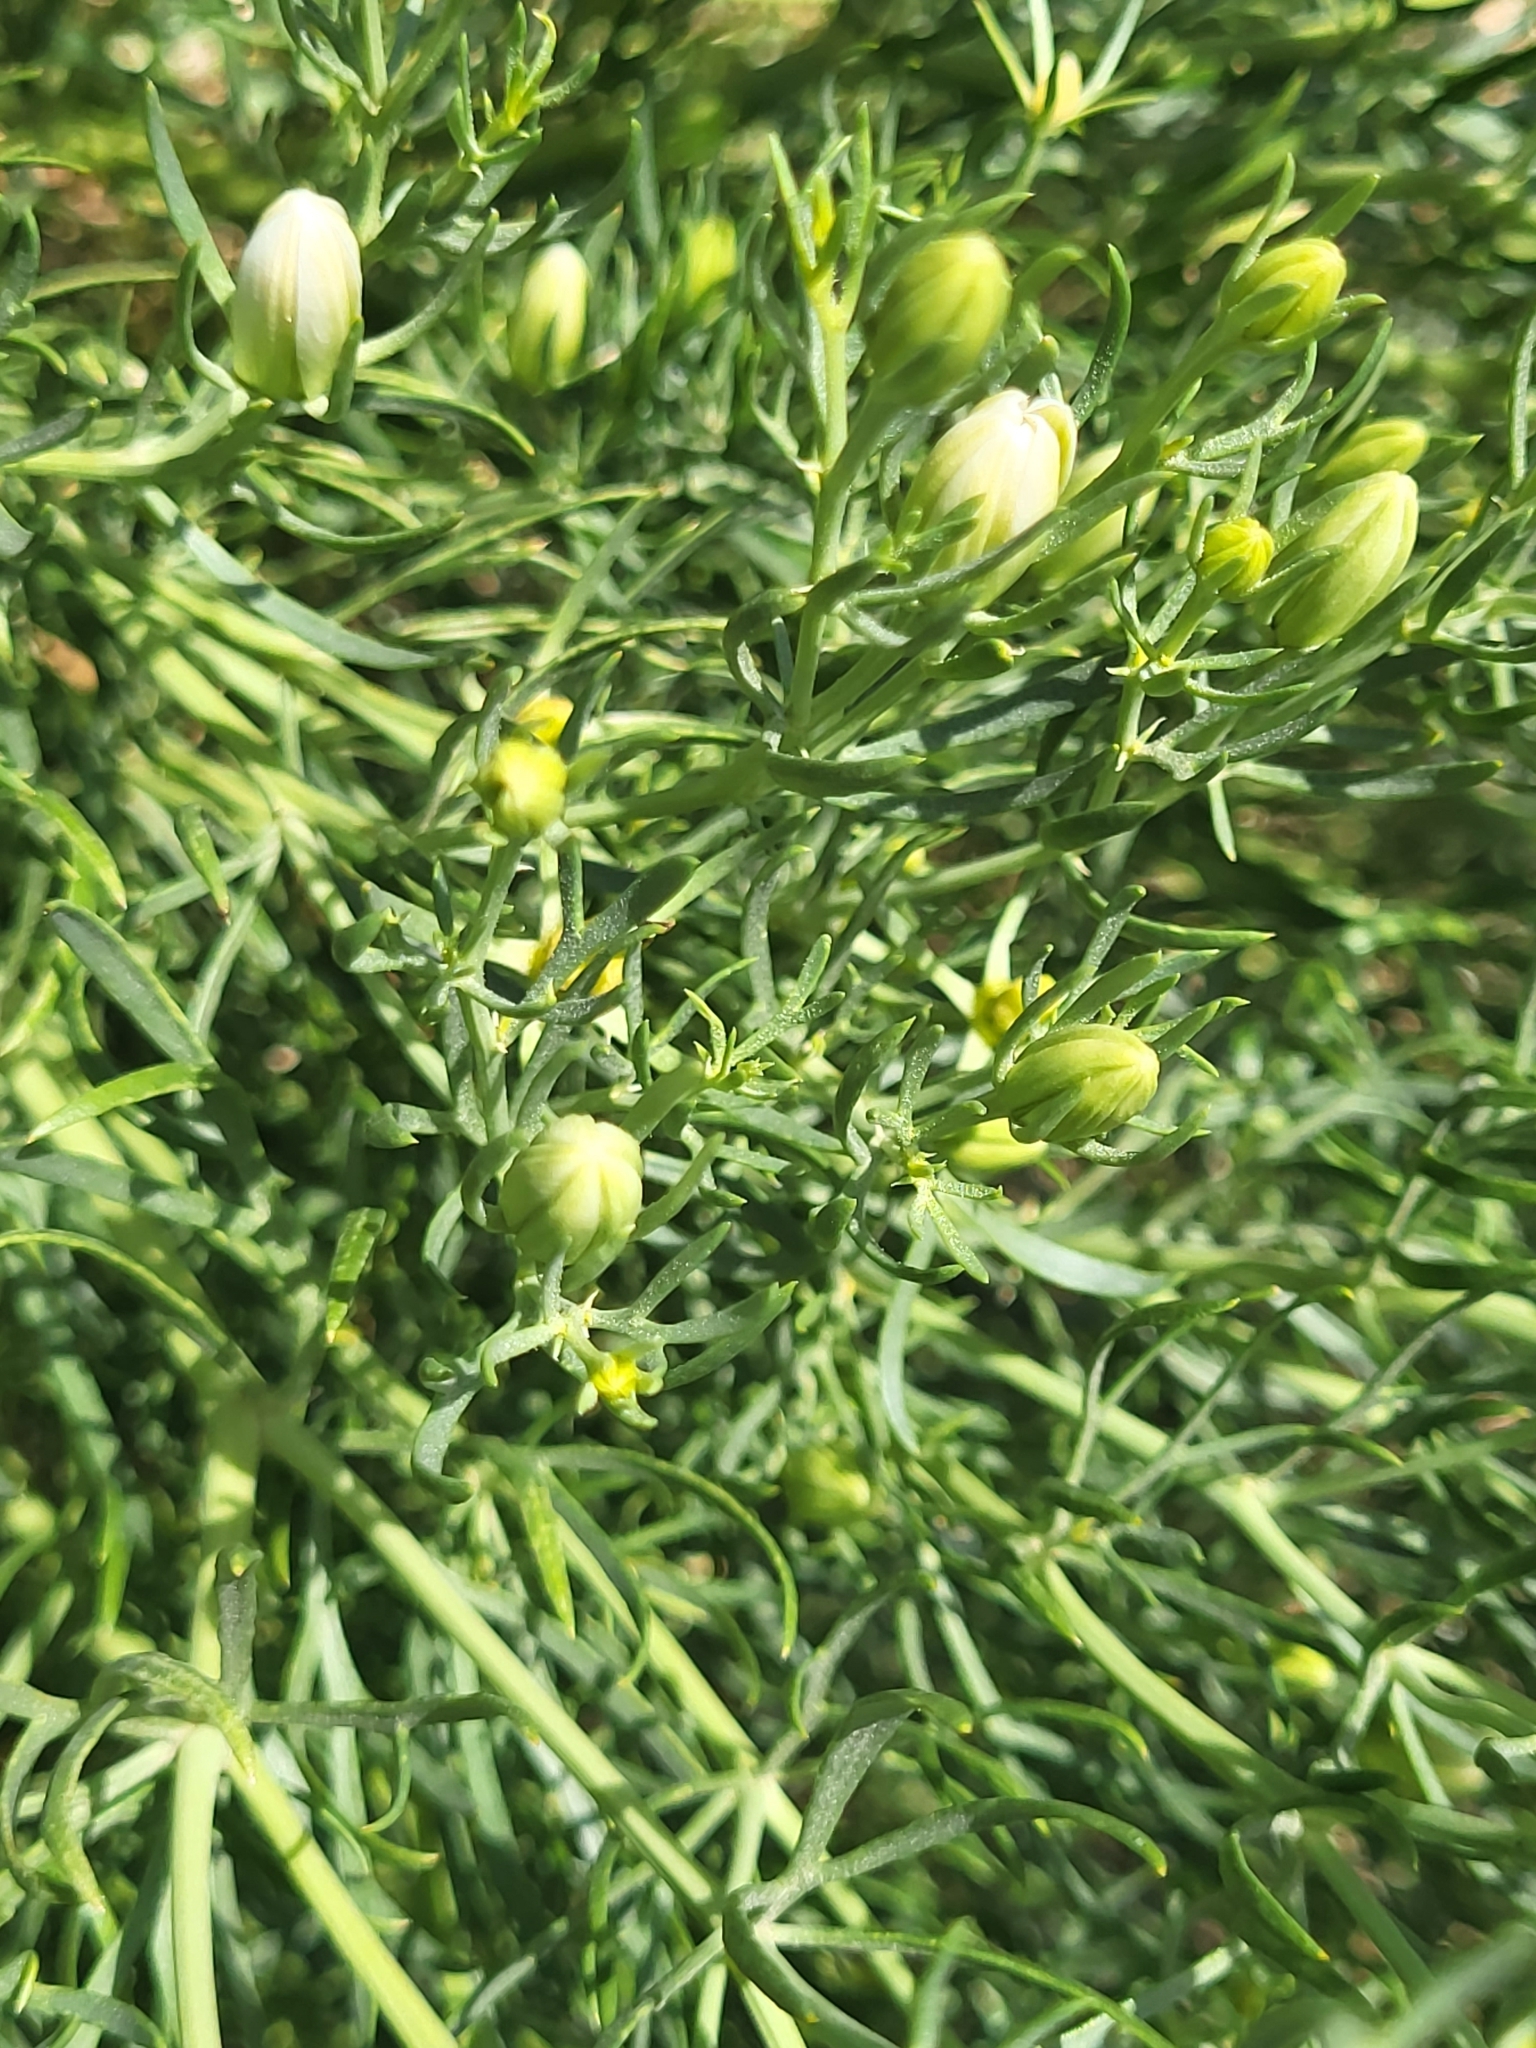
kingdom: Plantae
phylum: Tracheophyta
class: Magnoliopsida
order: Sapindales
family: Tetradiclidaceae
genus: Peganum
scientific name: Peganum harmala
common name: Harmal peganum
